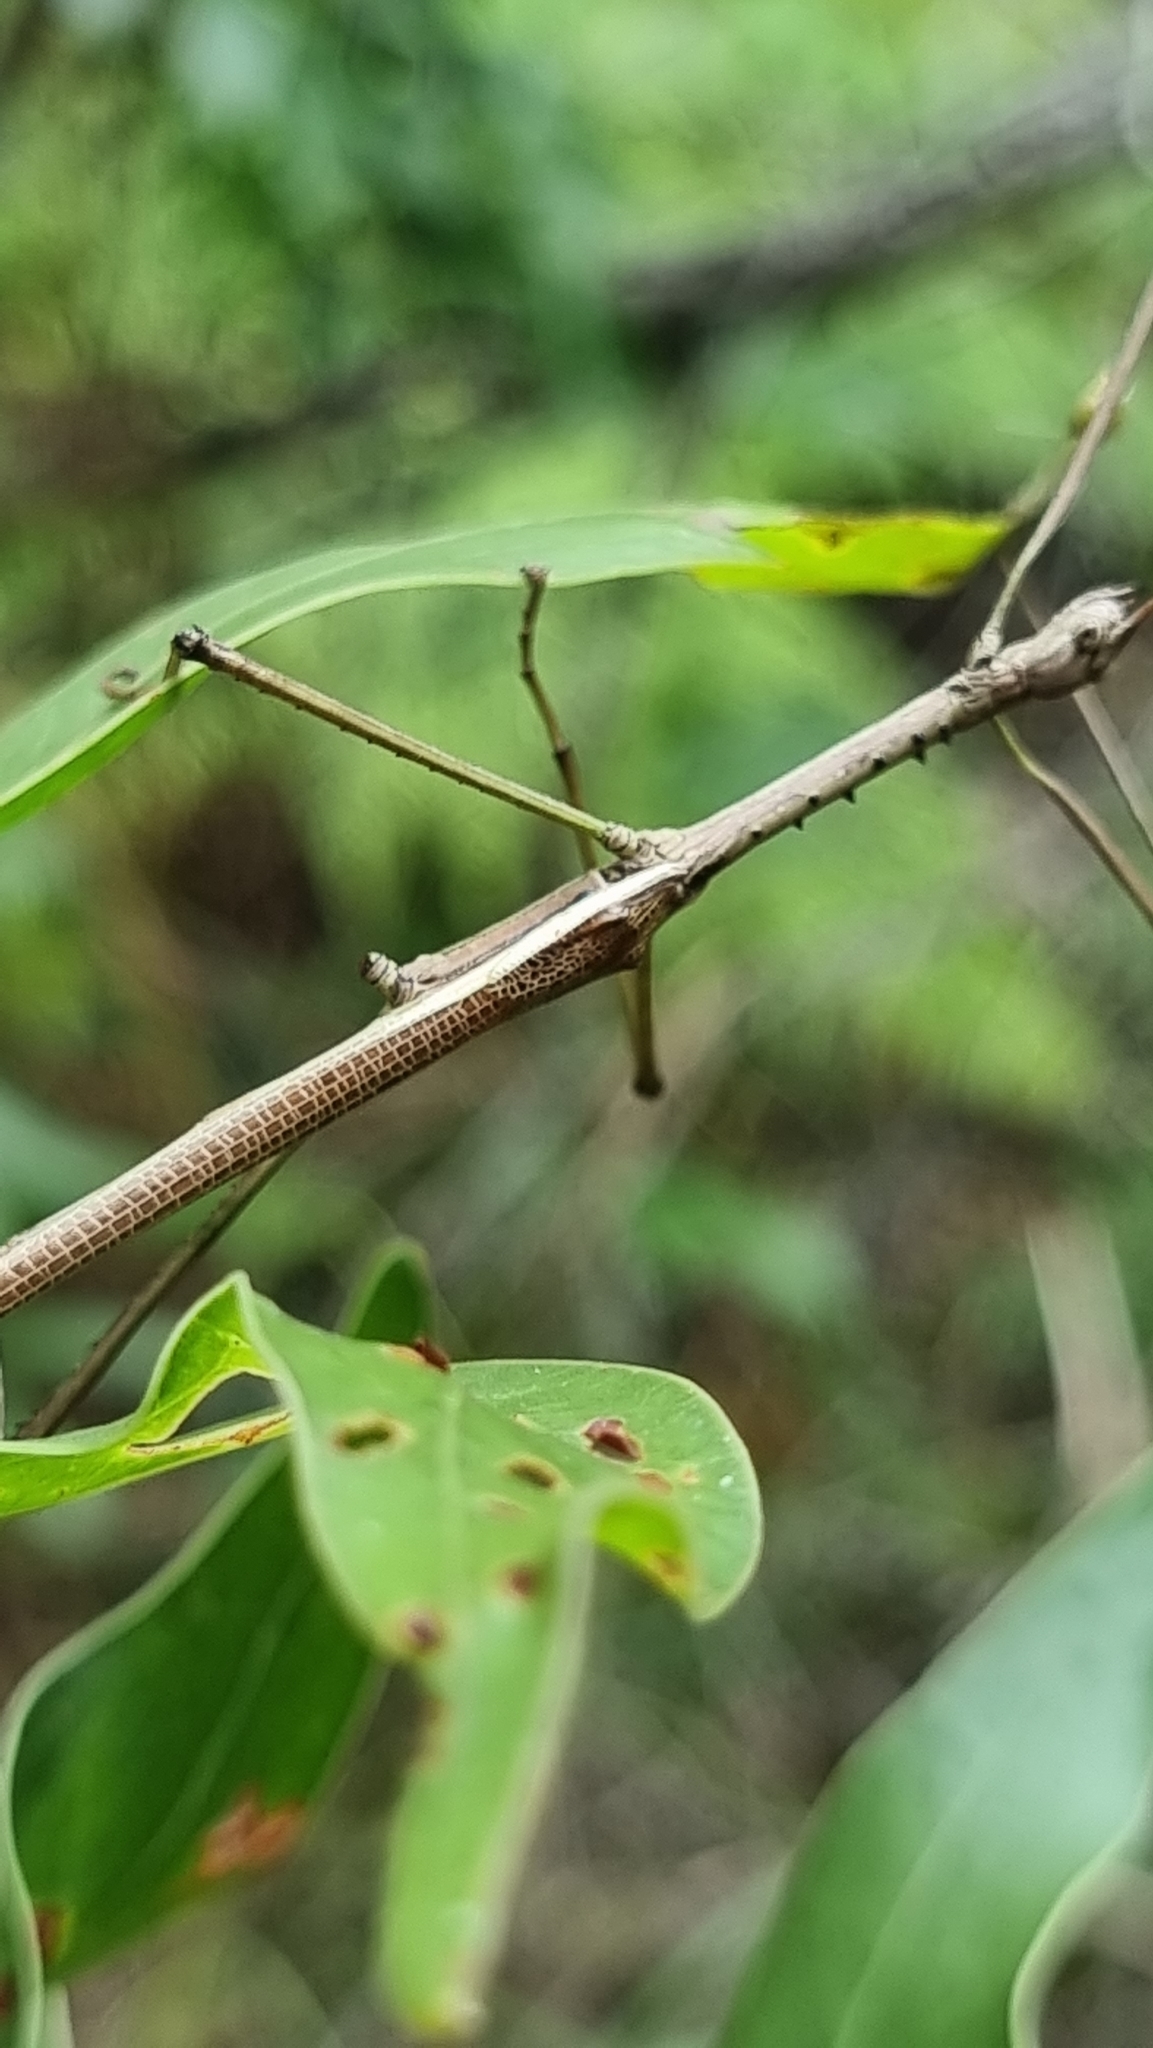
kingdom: Animalia
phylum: Arthropoda
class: Insecta
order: Phasmida
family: Phasmatidae
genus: Anchiale
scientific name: Anchiale austrotessulata
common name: Tessellated stick-insect
